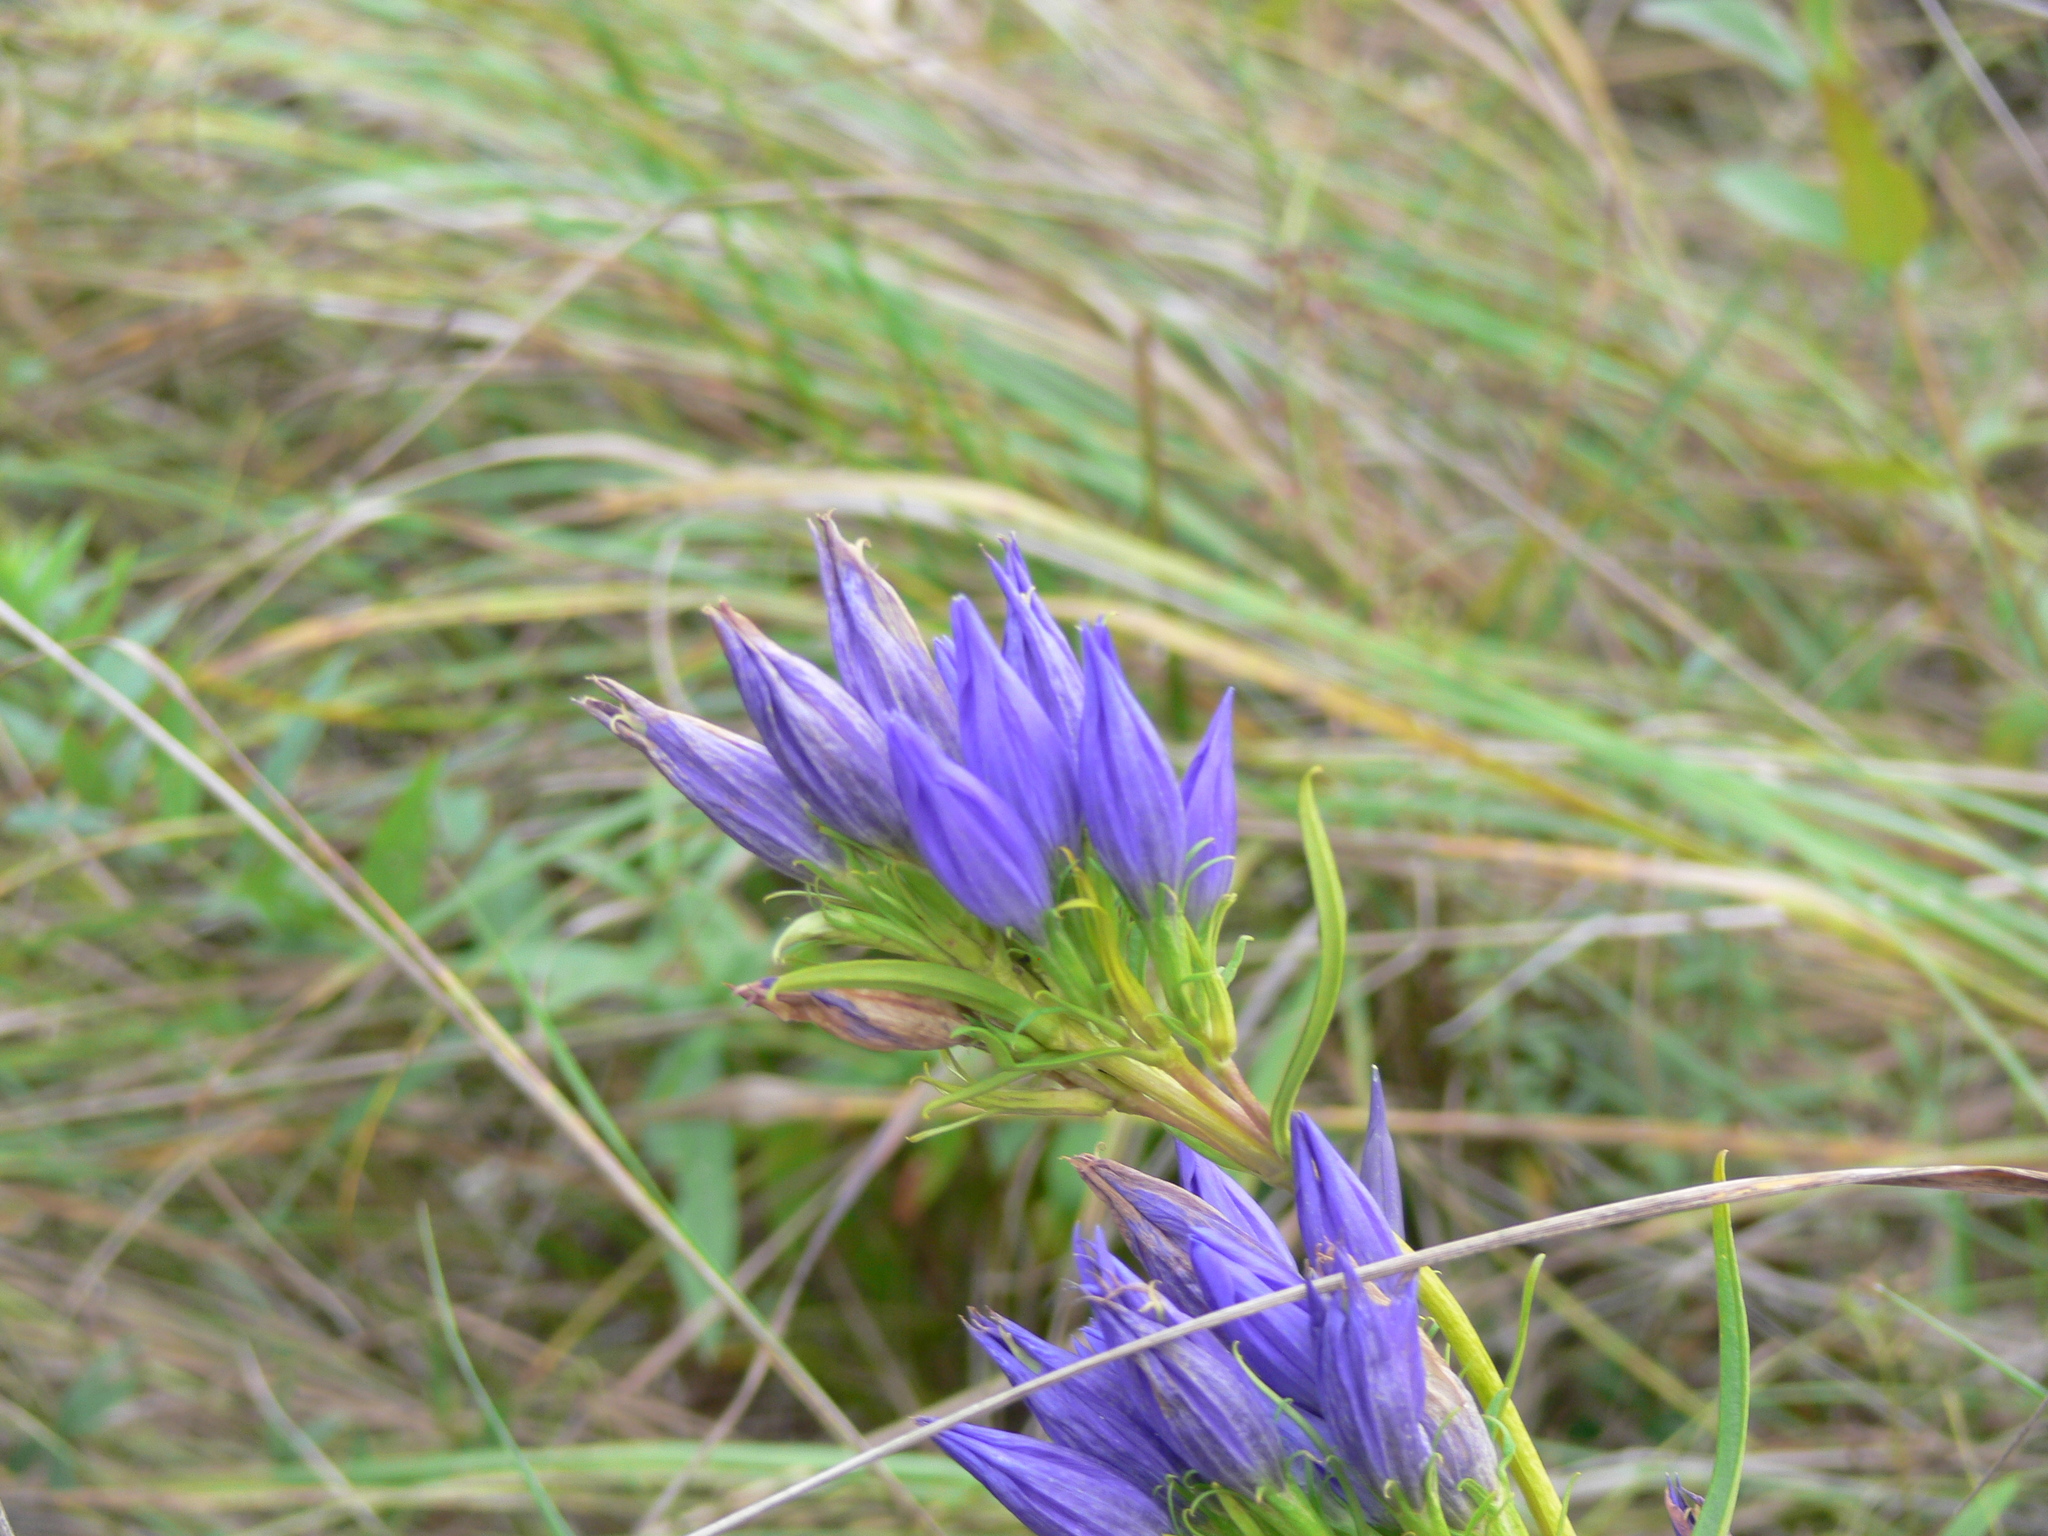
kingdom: Plantae
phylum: Tracheophyta
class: Magnoliopsida
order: Gentianales
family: Gentianaceae
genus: Gentiana
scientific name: Gentiana pneumonanthe
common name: Marsh gentian
